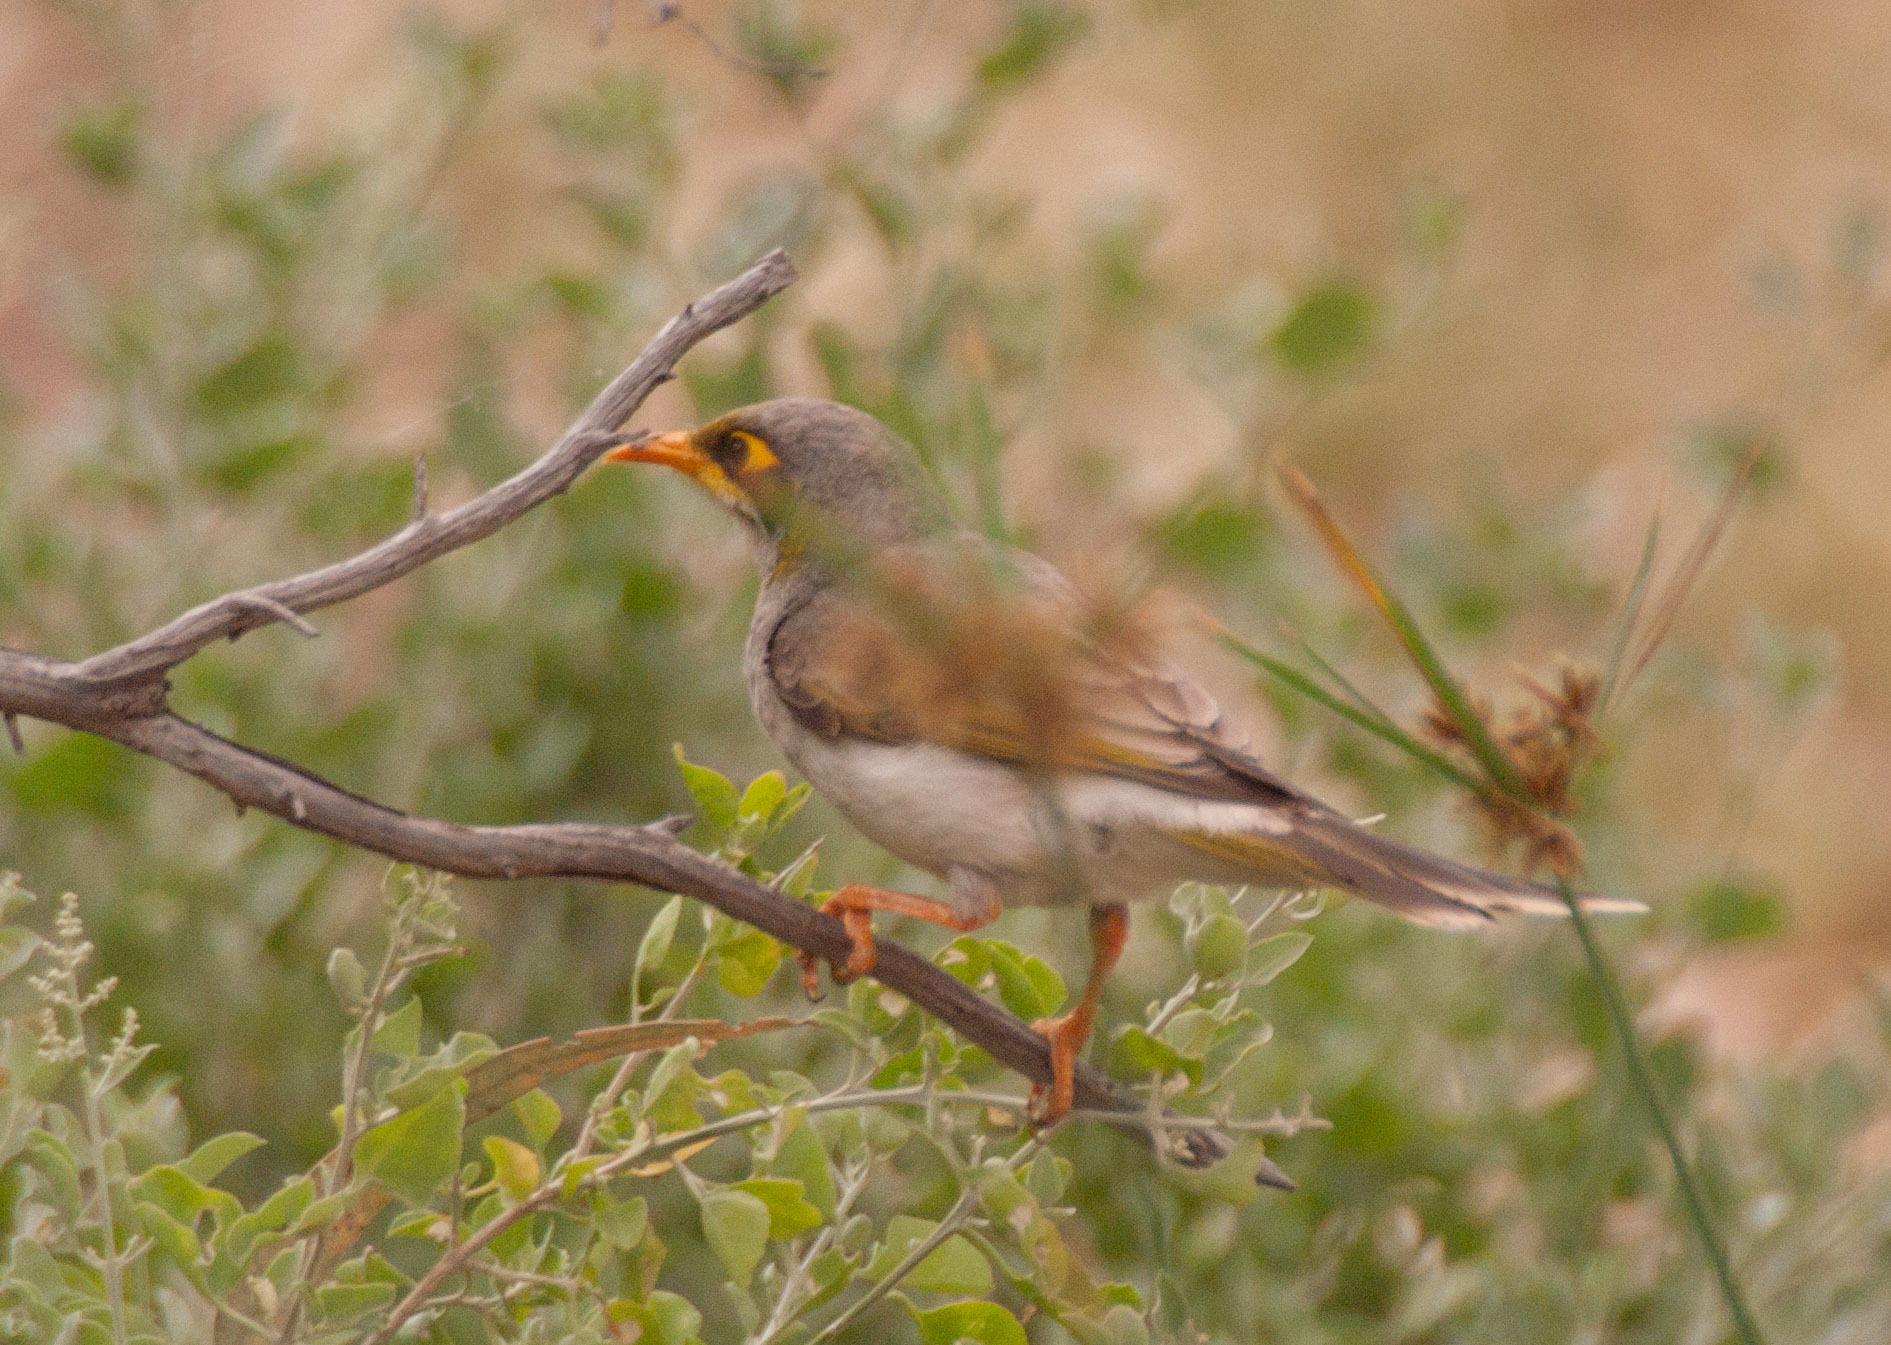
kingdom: Animalia
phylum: Chordata
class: Aves
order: Passeriformes
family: Meliphagidae
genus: Manorina
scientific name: Manorina flavigula
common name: Yellow-throated miner
